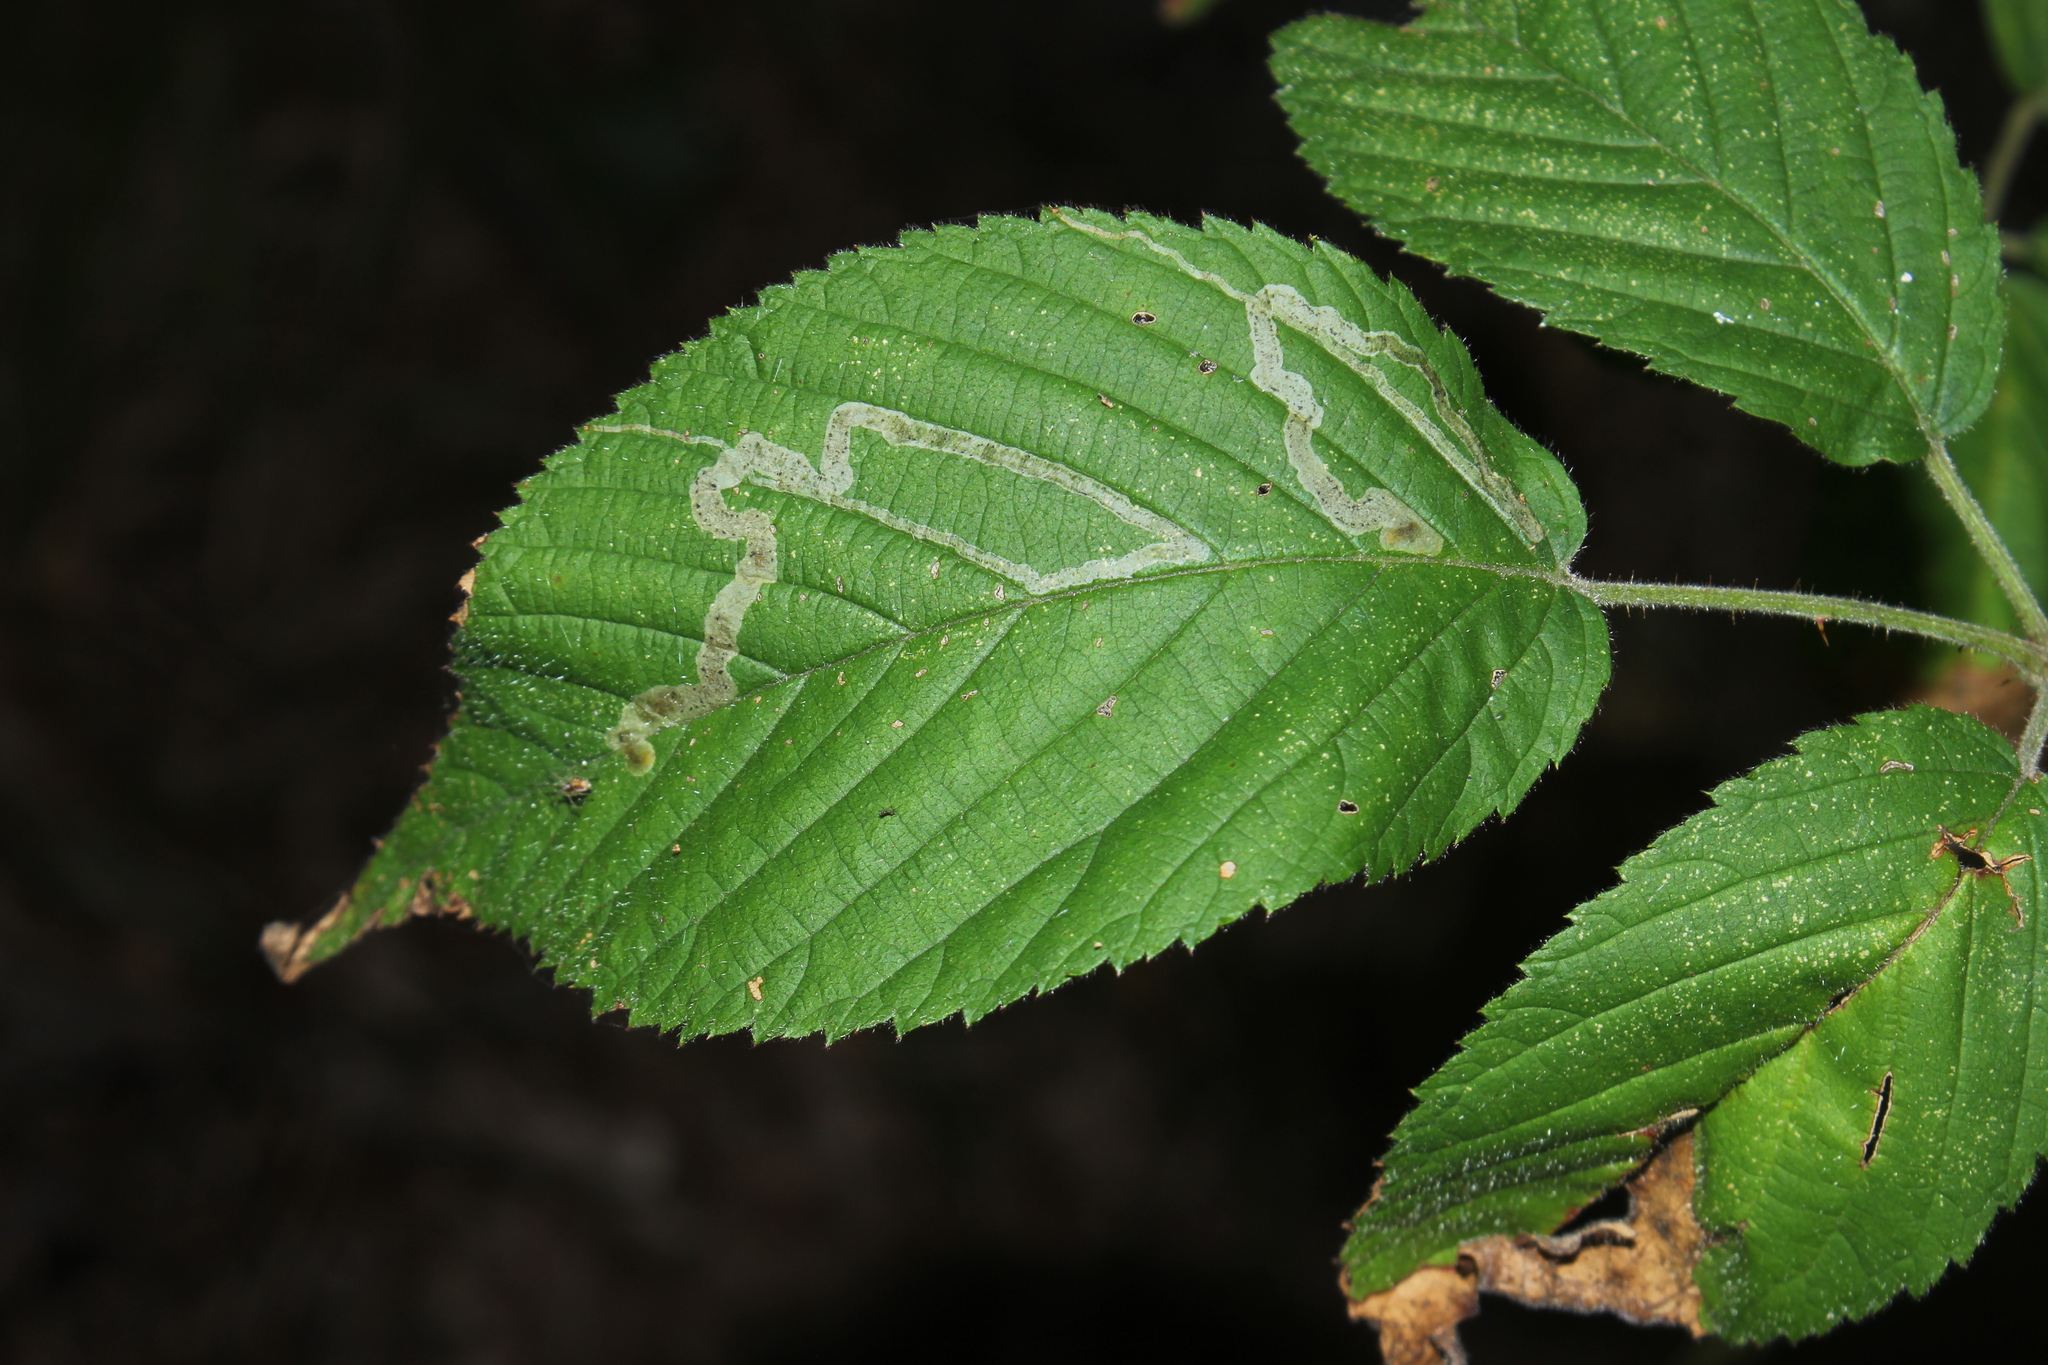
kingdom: Animalia
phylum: Arthropoda
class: Insecta
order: Diptera
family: Agromyzidae
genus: Agromyza
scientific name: Agromyza vockerothi
